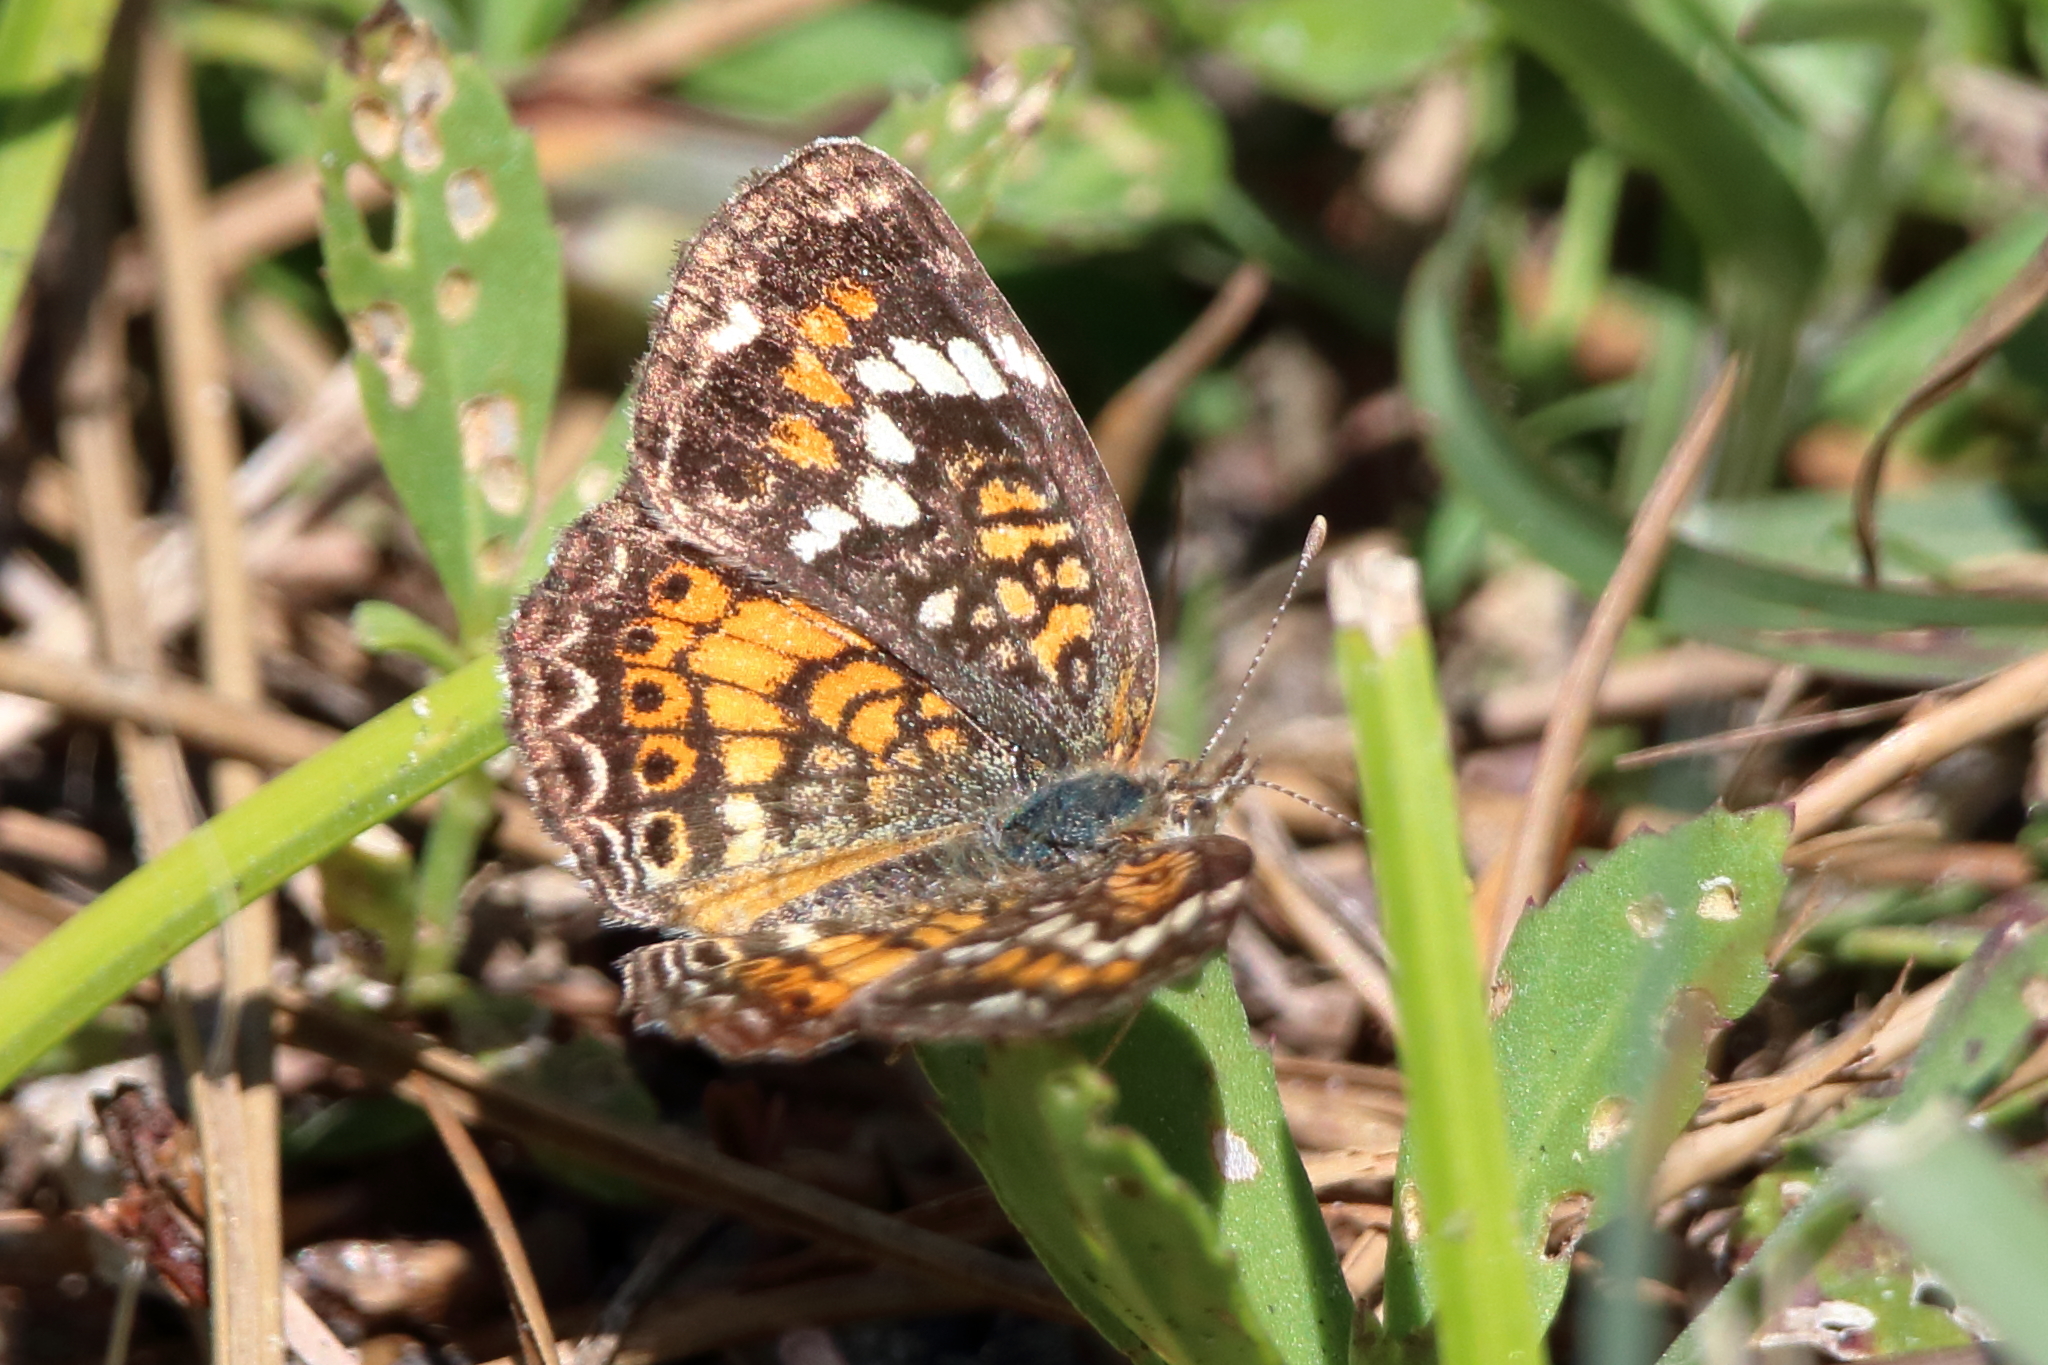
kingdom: Animalia
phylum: Arthropoda
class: Insecta
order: Lepidoptera
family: Nymphalidae
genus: Phyciodes
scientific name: Phyciodes phaon
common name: Phaon crescent
